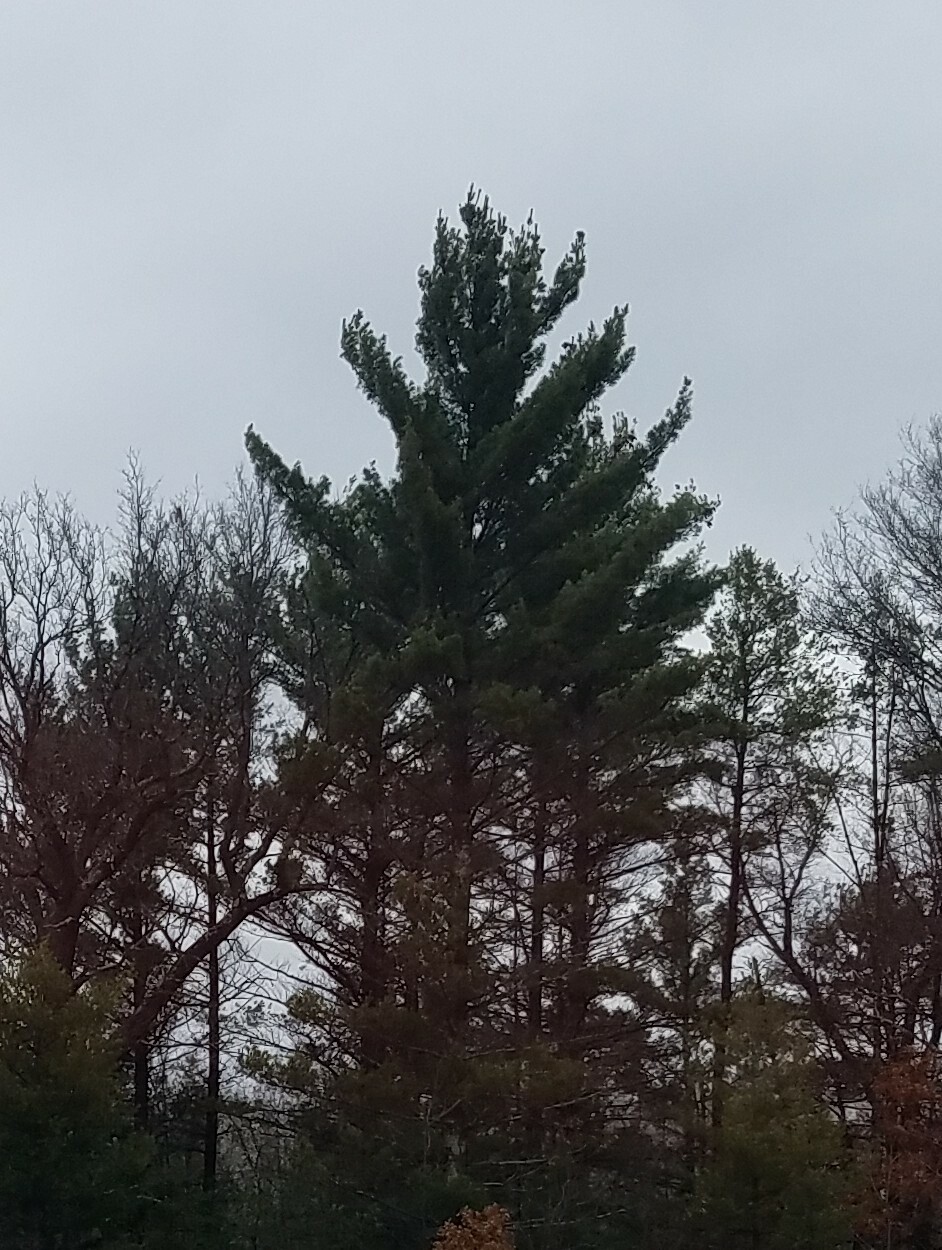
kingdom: Plantae
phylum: Tracheophyta
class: Pinopsida
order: Pinales
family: Pinaceae
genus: Pinus
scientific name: Pinus strobus
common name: Weymouth pine
